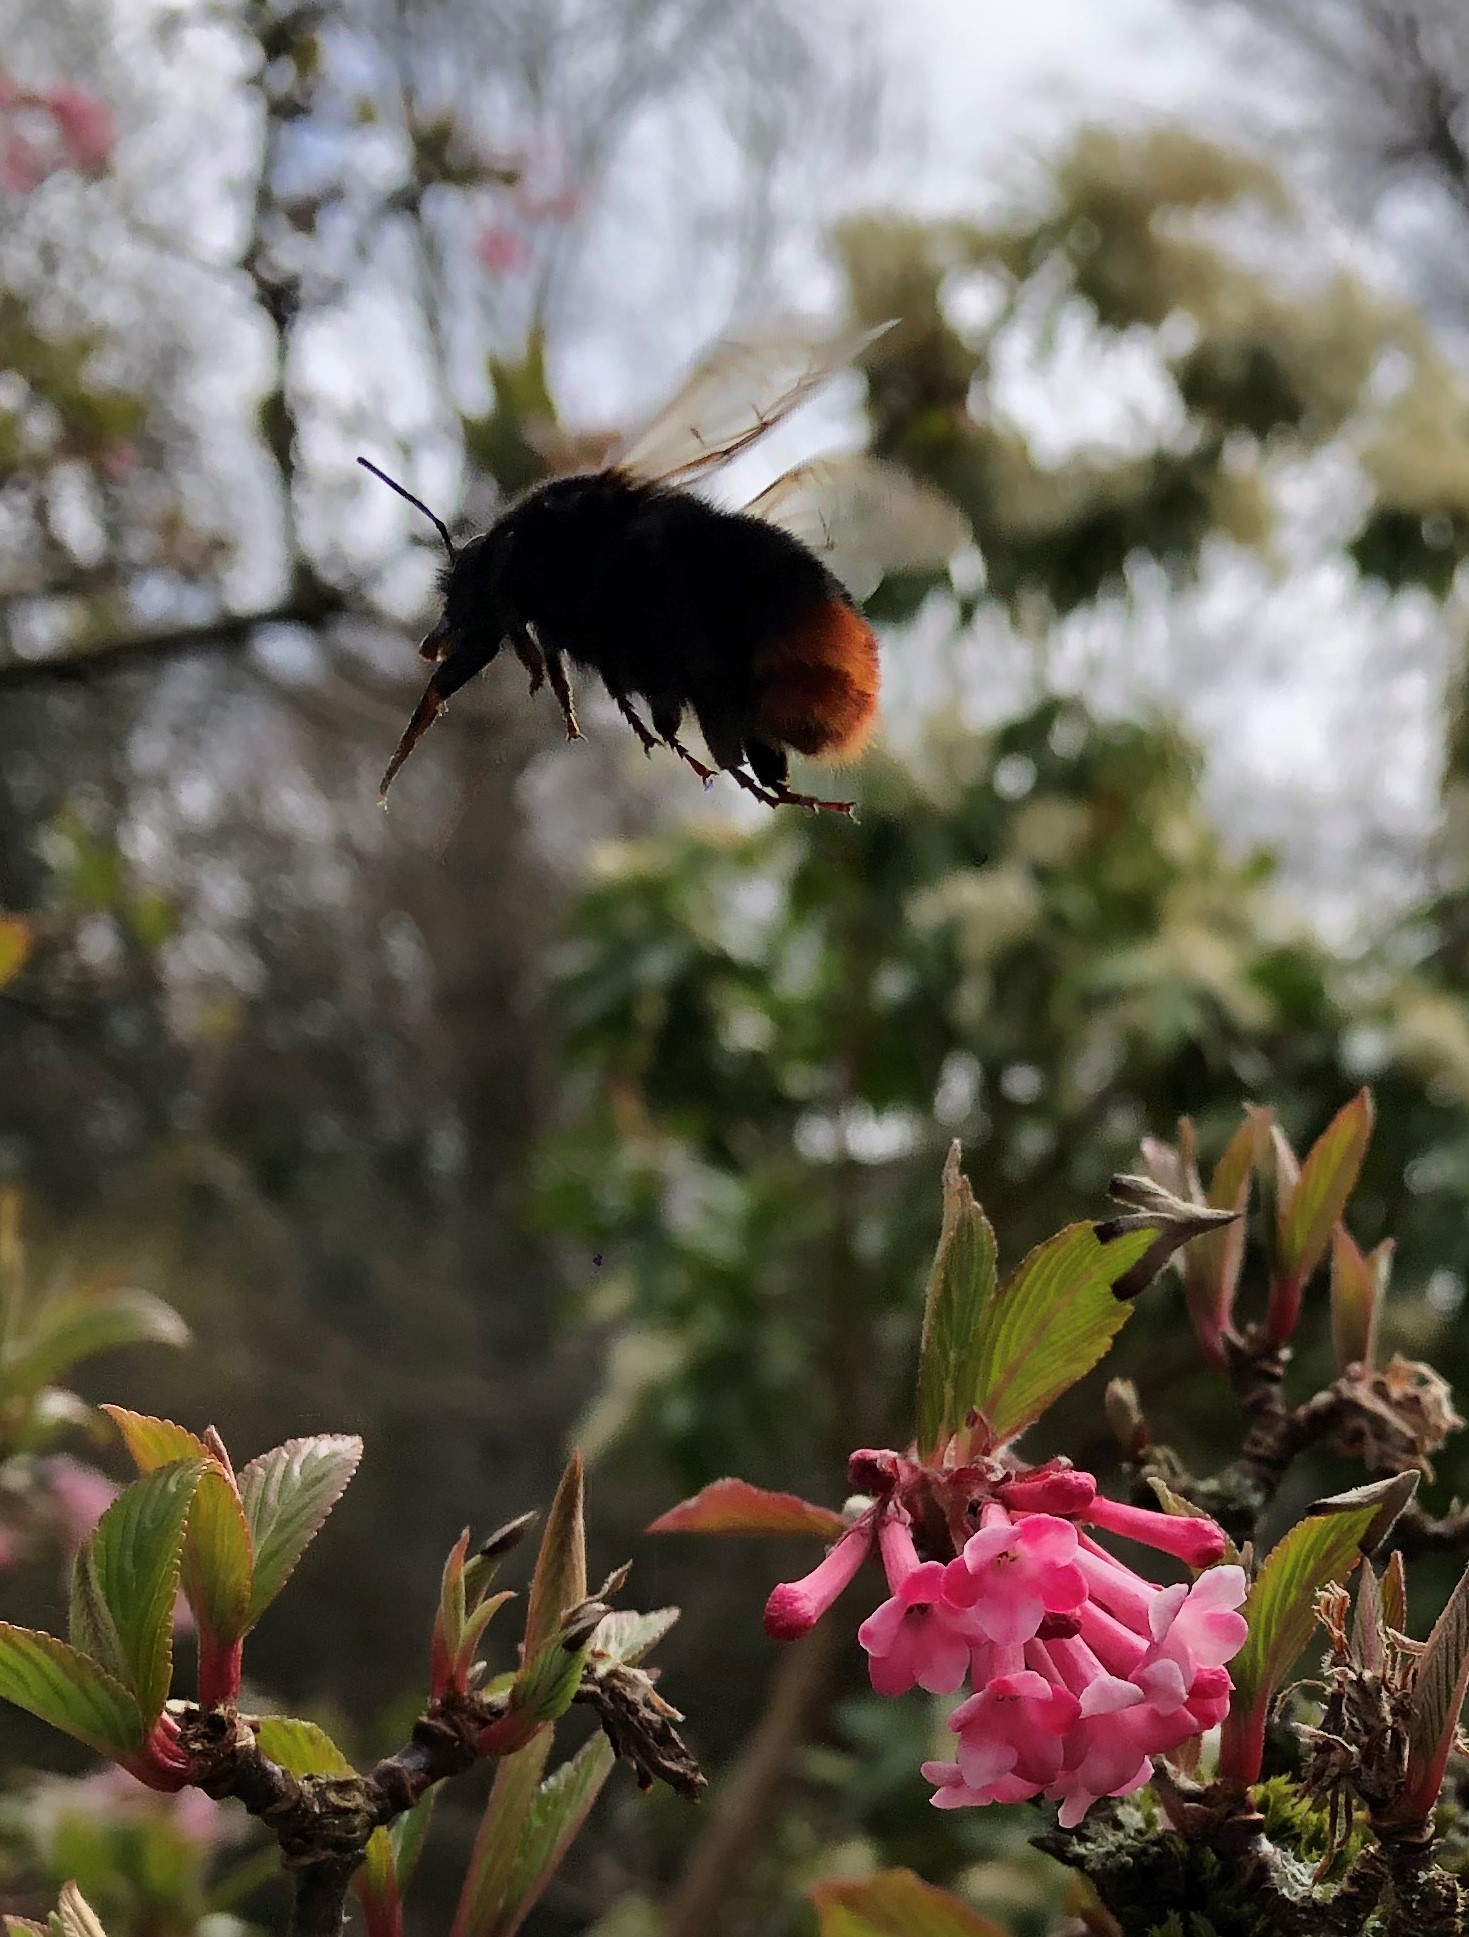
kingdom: Animalia
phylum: Arthropoda
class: Insecta
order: Hymenoptera
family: Apidae
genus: Bombus
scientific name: Bombus lapidarius
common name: Large red-tailed humble-bee
